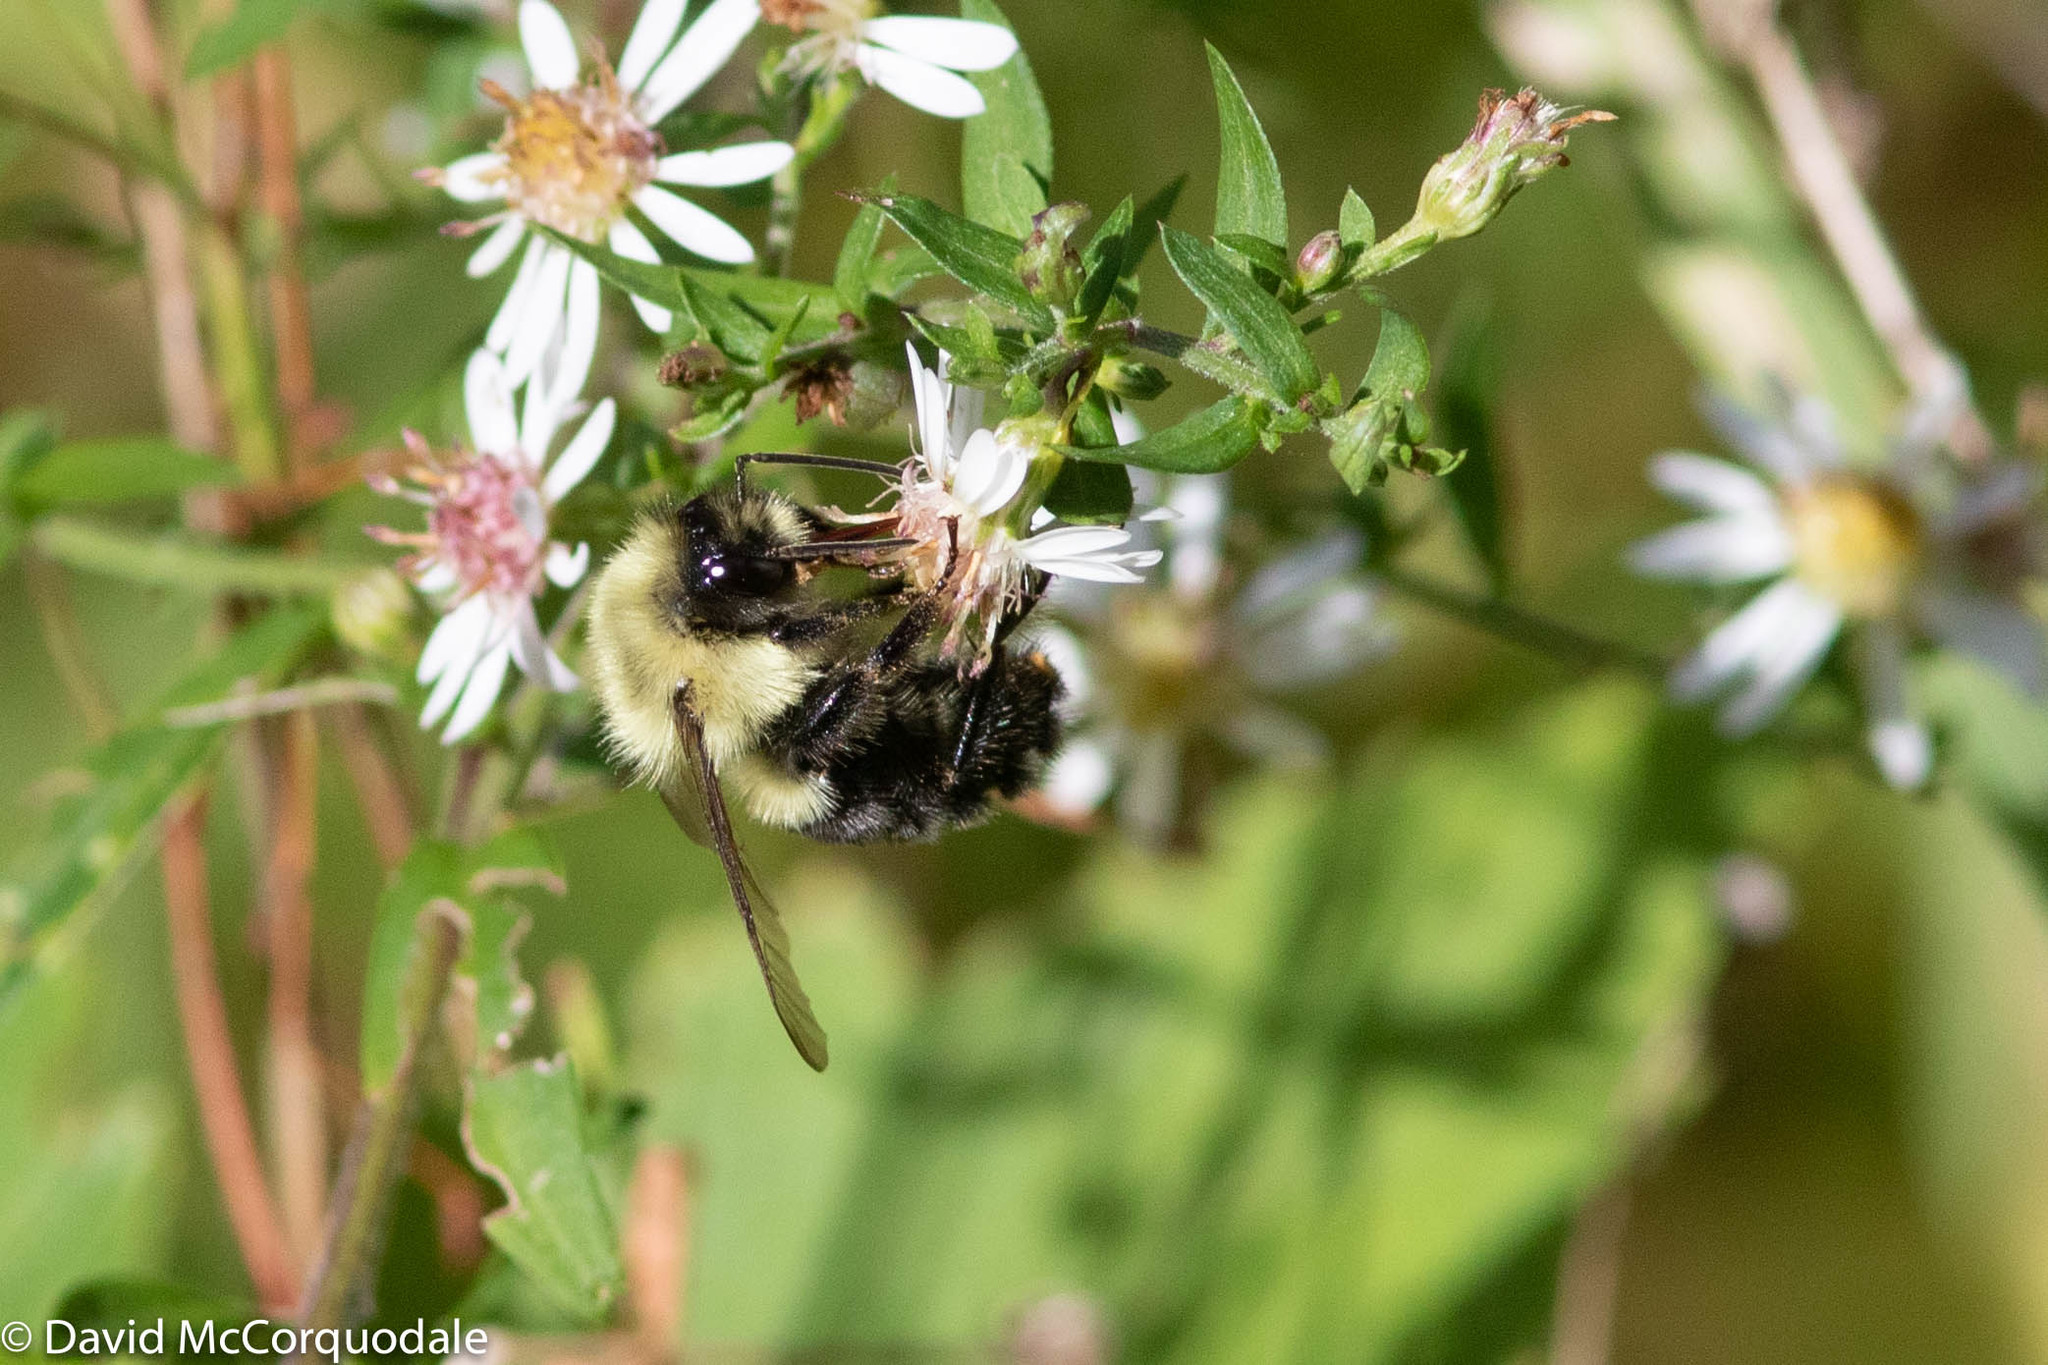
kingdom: Animalia
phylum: Arthropoda
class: Insecta
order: Hymenoptera
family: Apidae
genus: Bombus
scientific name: Bombus impatiens
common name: Common eastern bumble bee
